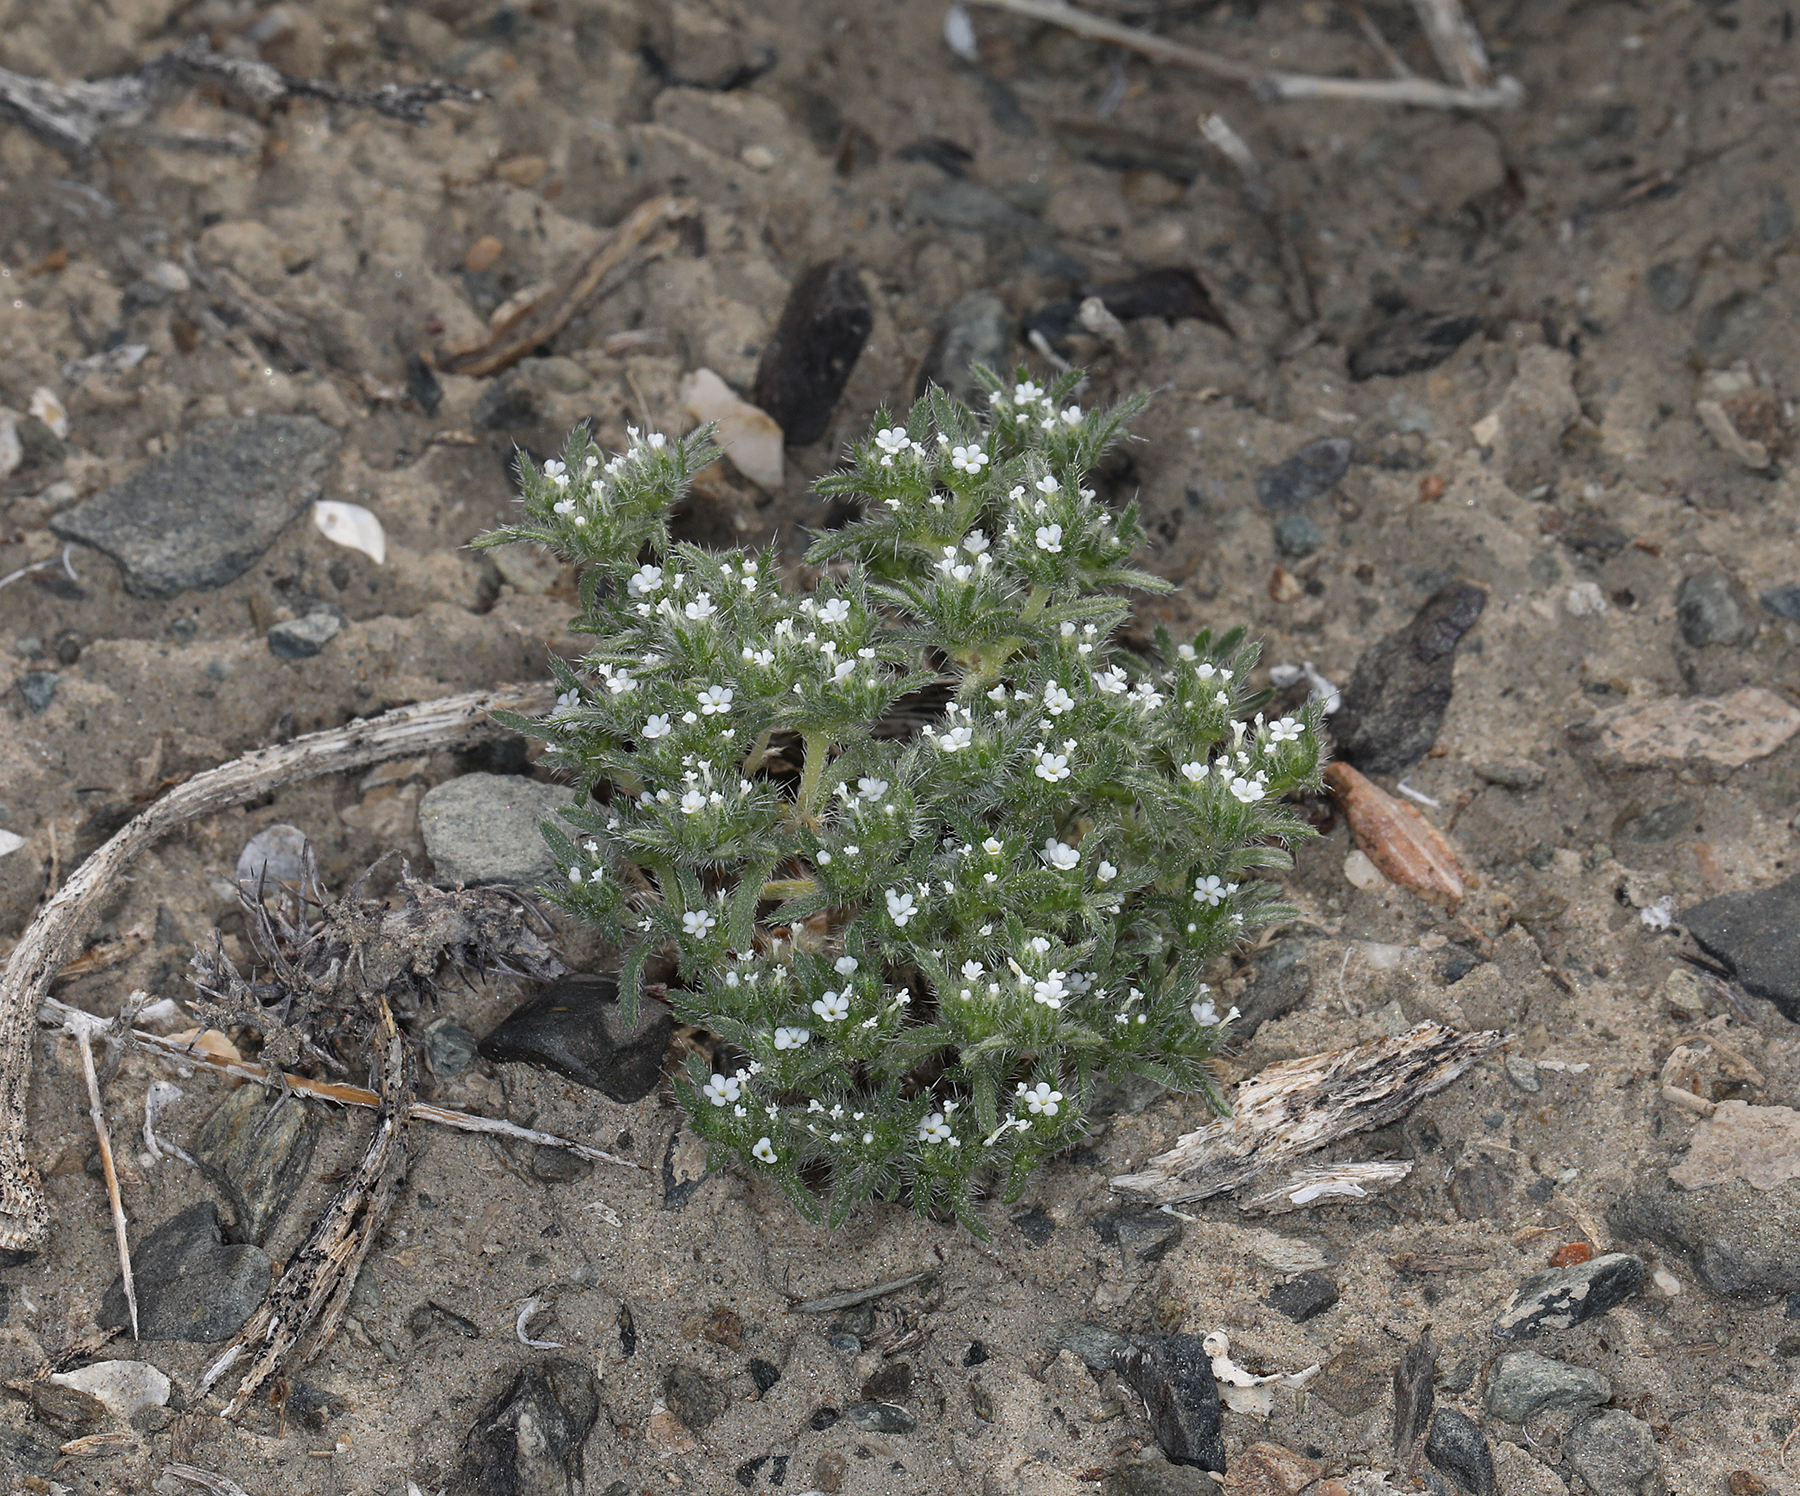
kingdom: Plantae
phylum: Tracheophyta
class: Magnoliopsida
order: Boraginales
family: Boraginaceae
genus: Greeneocharis
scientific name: Greeneocharis circumscissa
